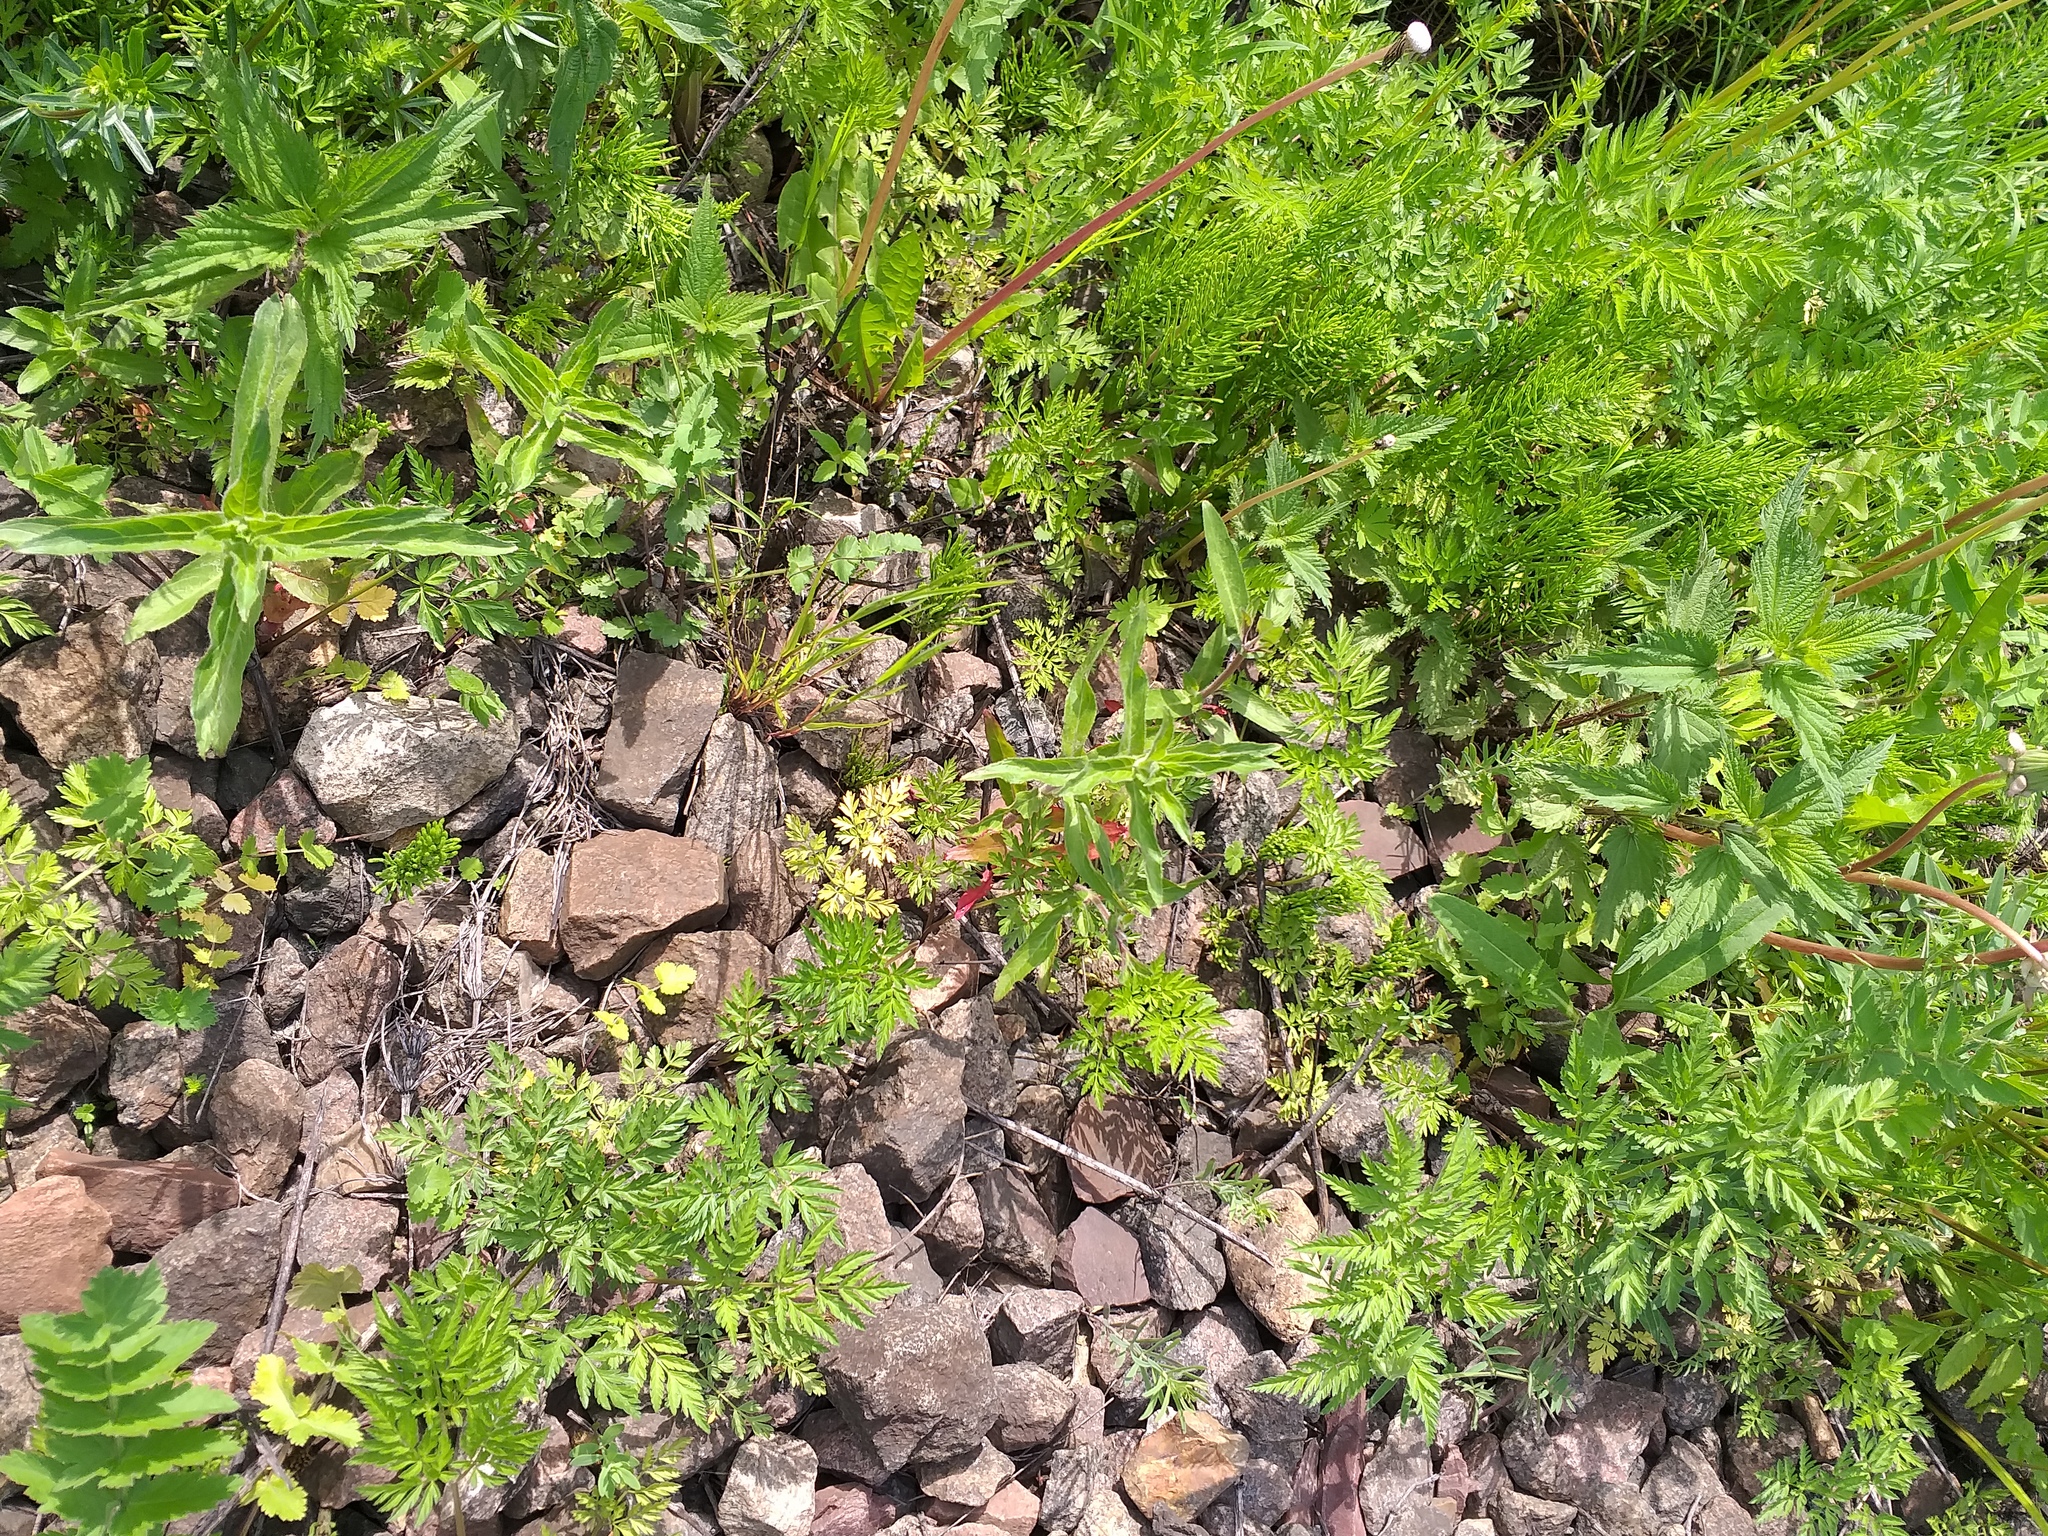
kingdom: Plantae
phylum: Tracheophyta
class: Magnoliopsida
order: Myrtales
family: Onagraceae
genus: Epilobium
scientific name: Epilobium hirsutum
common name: Great willowherb
